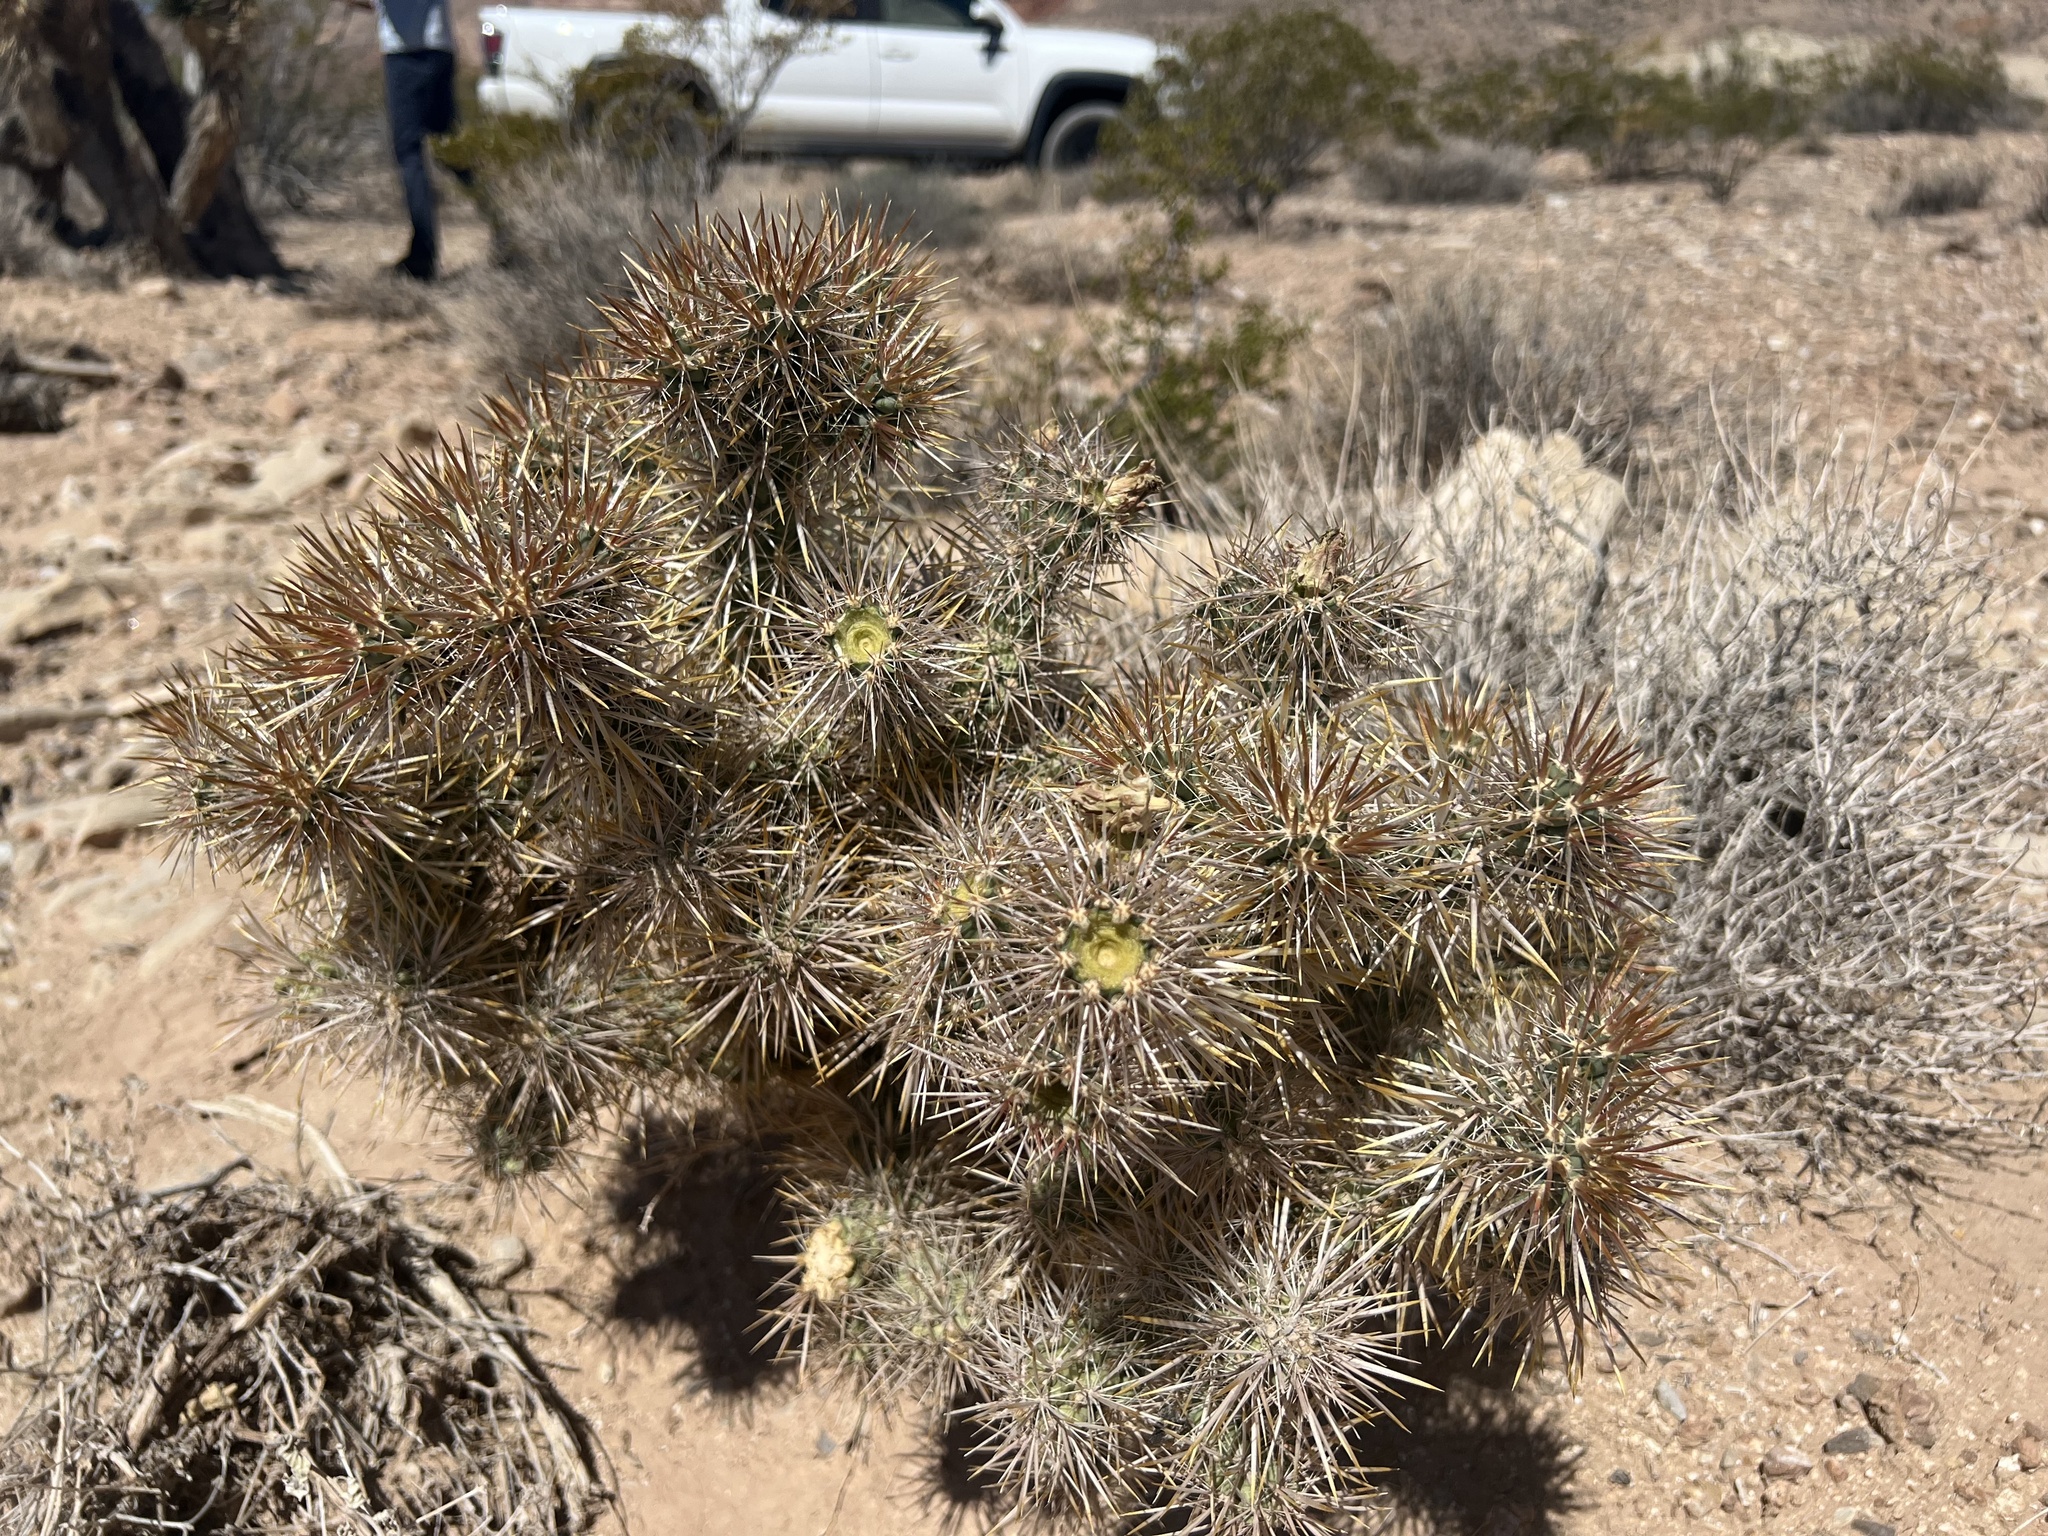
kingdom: Plantae
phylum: Tracheophyta
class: Magnoliopsida
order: Caryophyllales
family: Cactaceae
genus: Cylindropuntia
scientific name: Cylindropuntia echinocarpa
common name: Ground cholla
